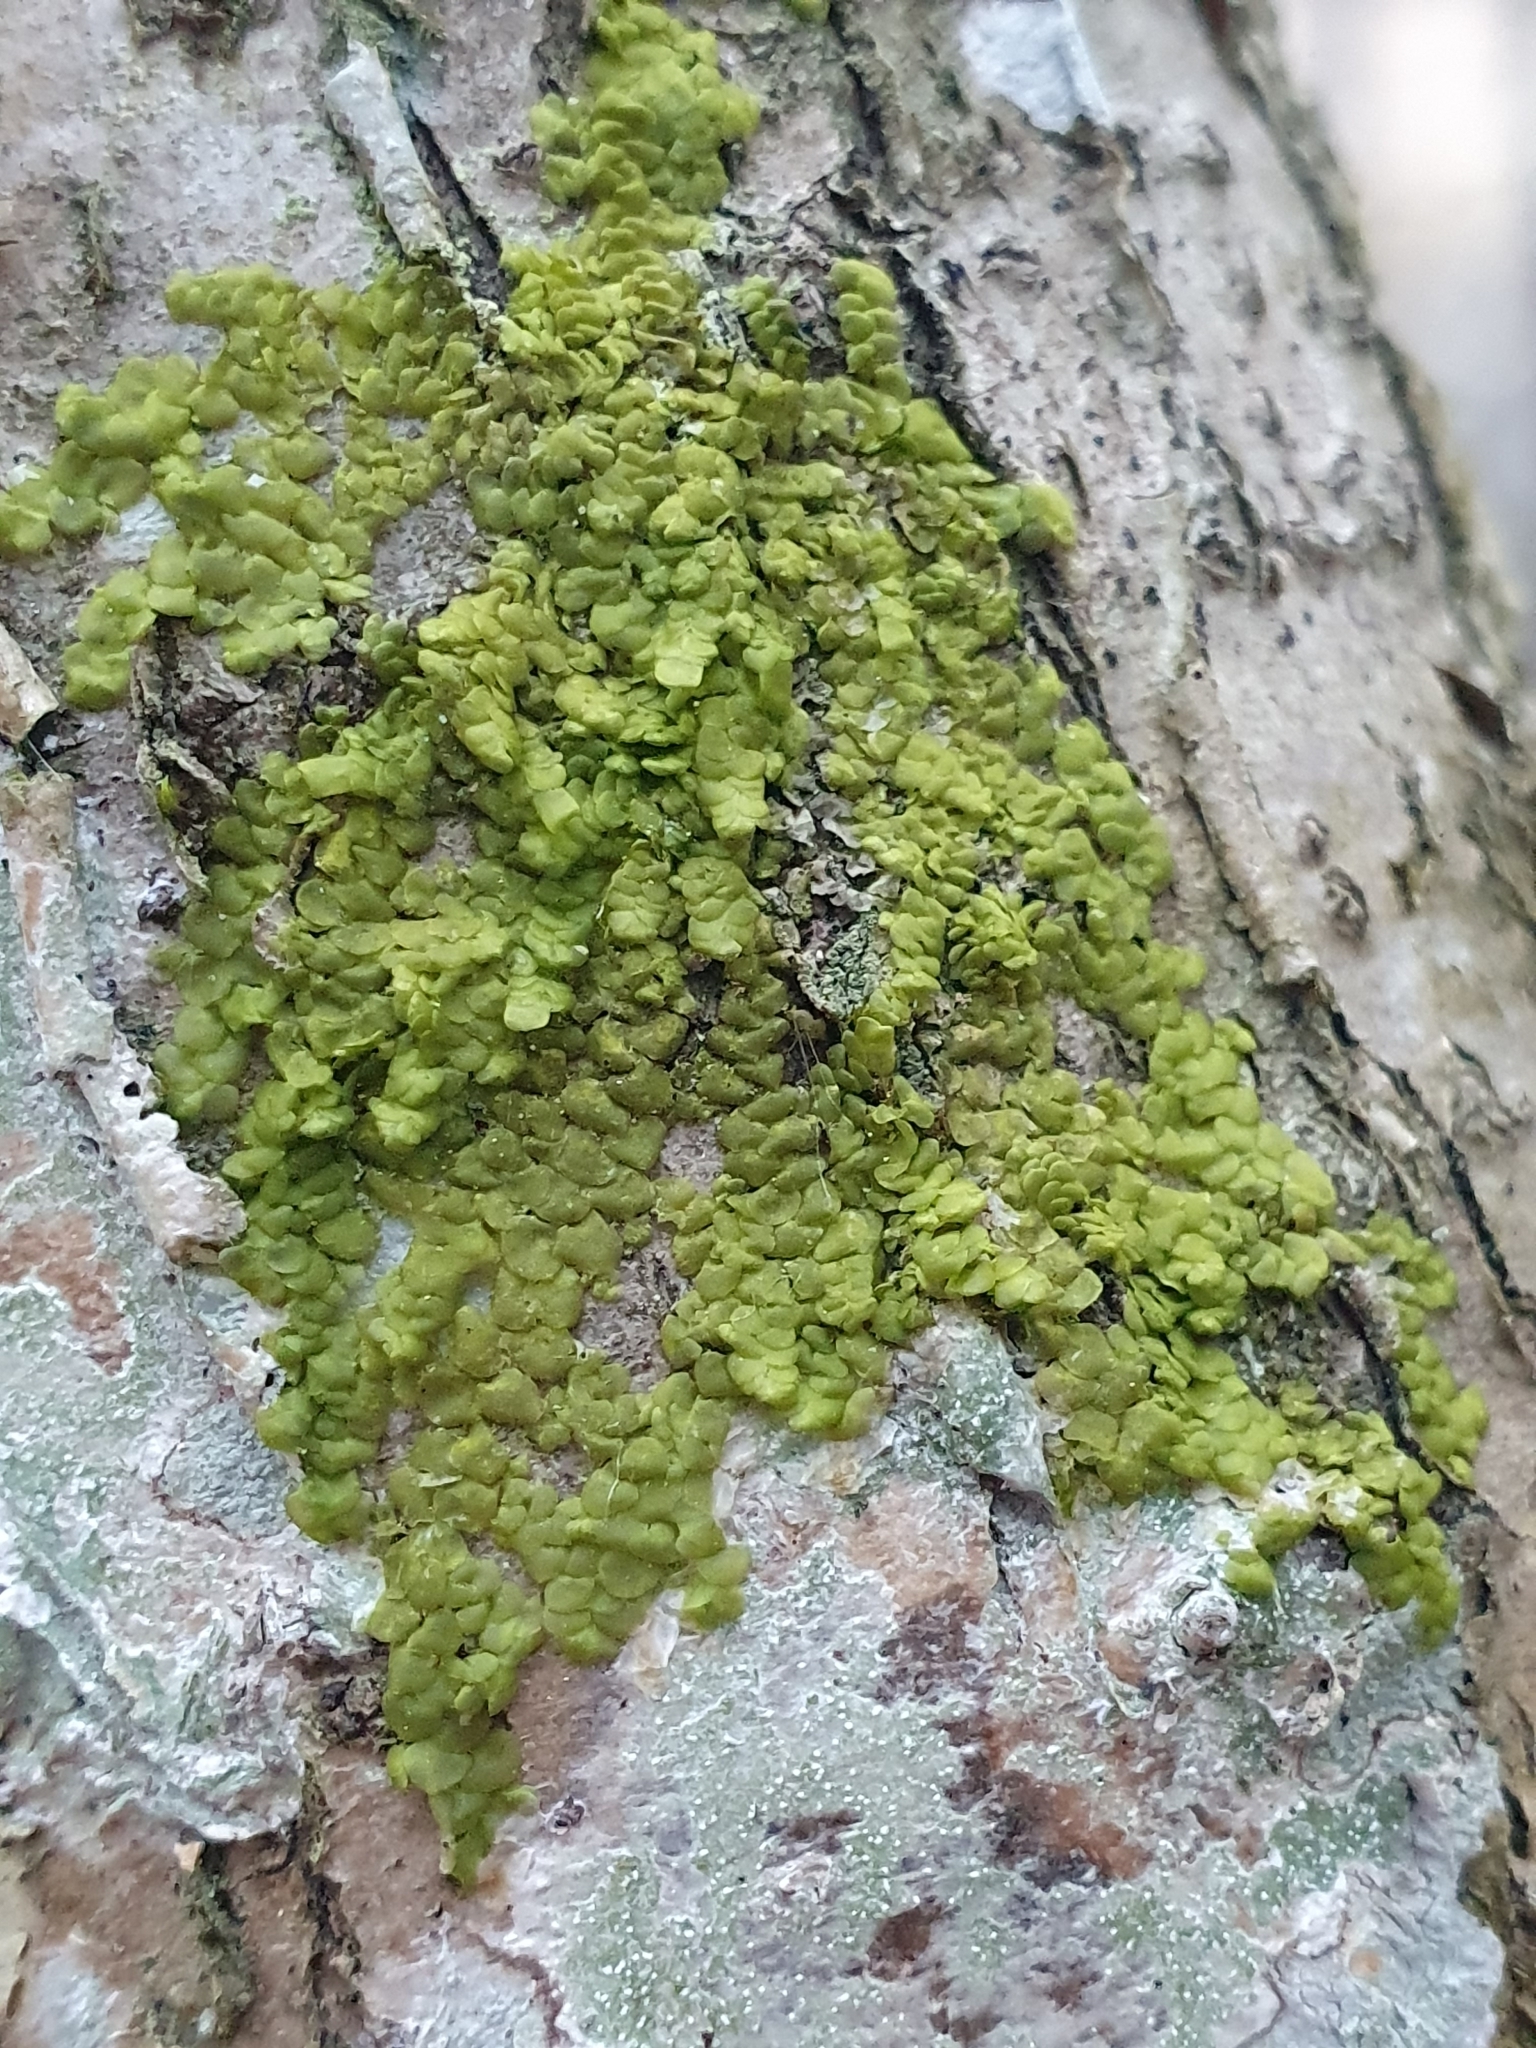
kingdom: Plantae
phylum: Marchantiophyta
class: Jungermanniopsida
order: Porellales
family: Radulaceae
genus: Radula
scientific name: Radula complanata
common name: Flat-leaved scalewort
